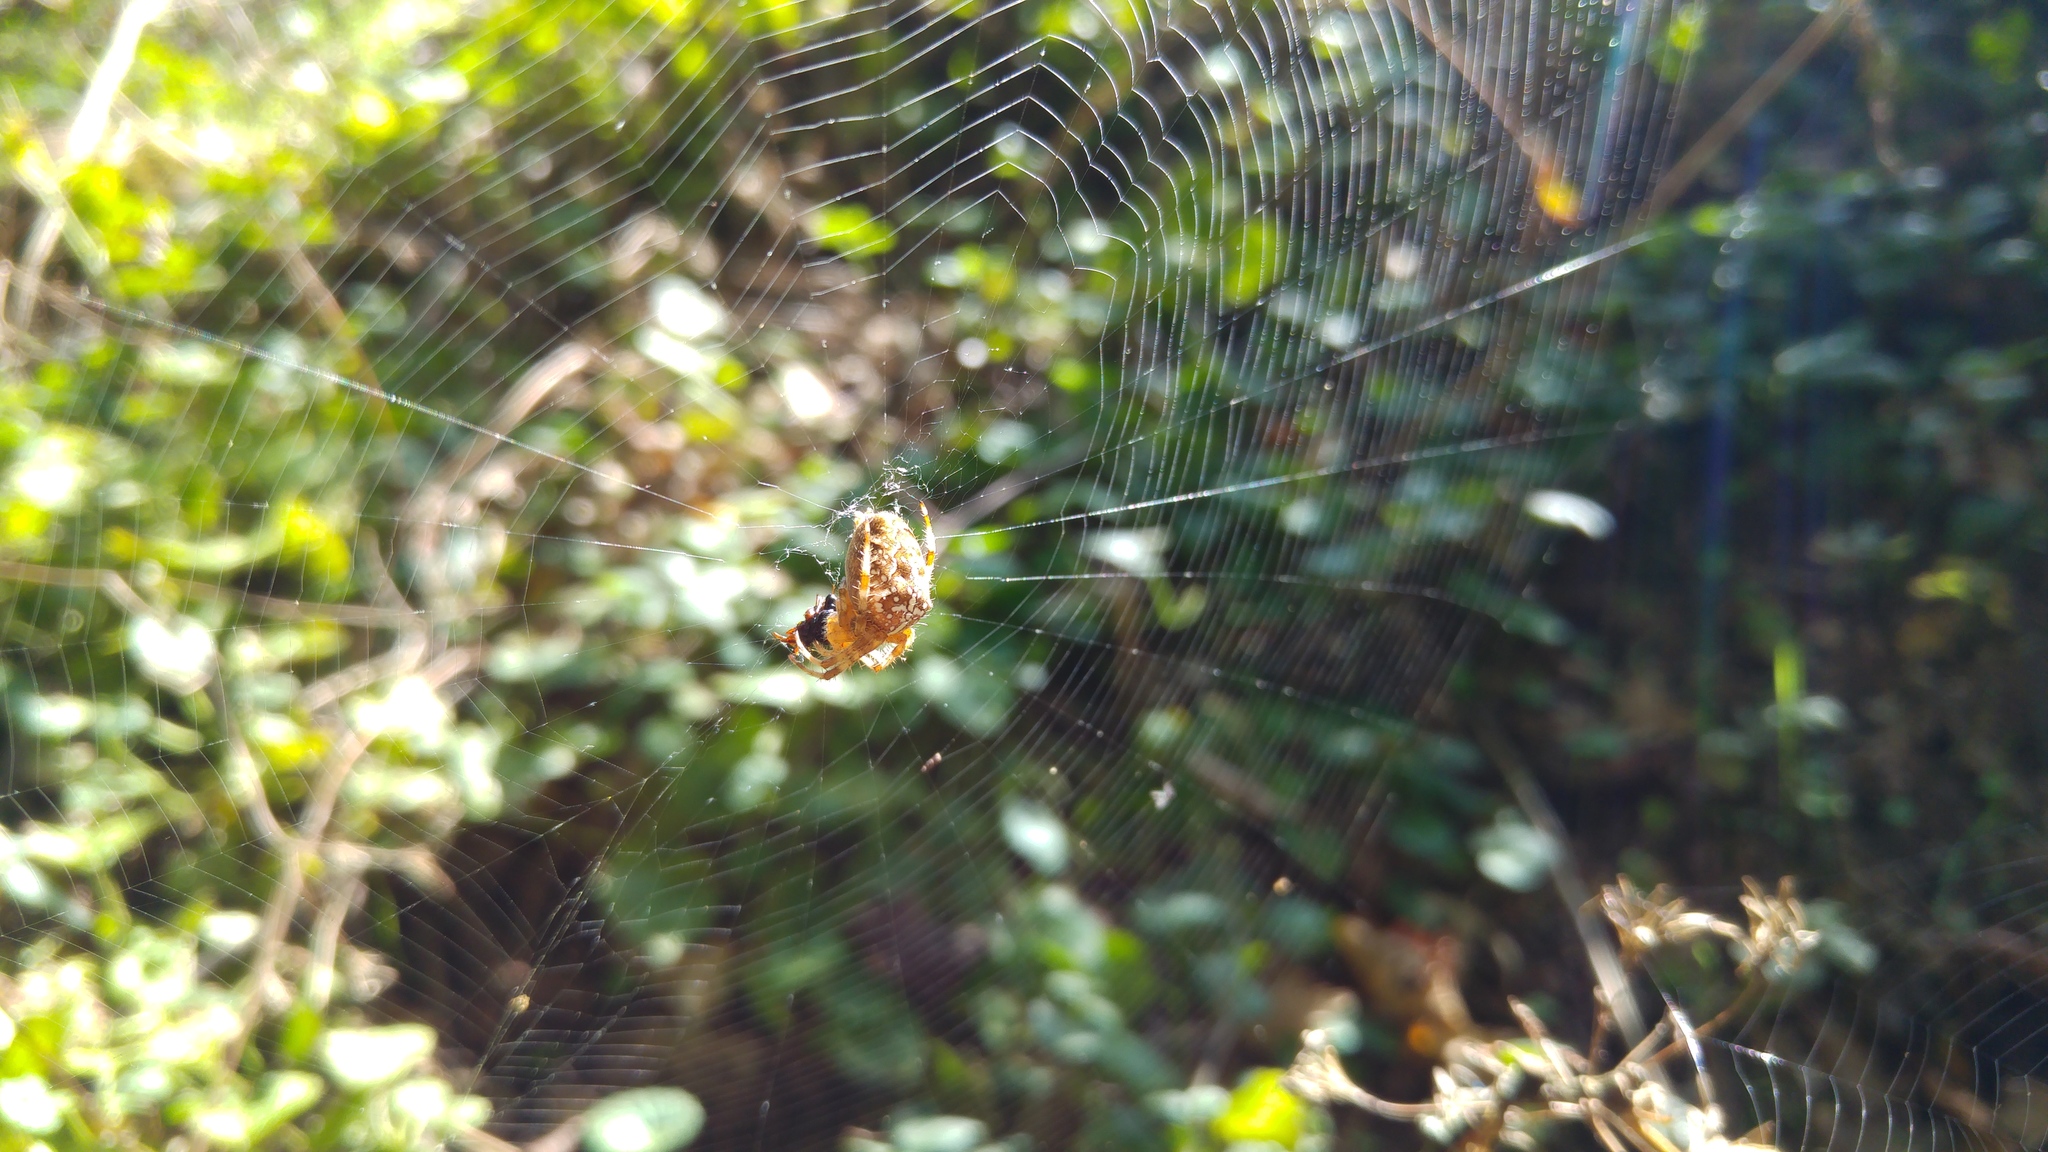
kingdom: Animalia
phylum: Arthropoda
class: Arachnida
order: Araneae
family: Araneidae
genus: Araneus
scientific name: Araneus diadematus
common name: Cross orbweaver
